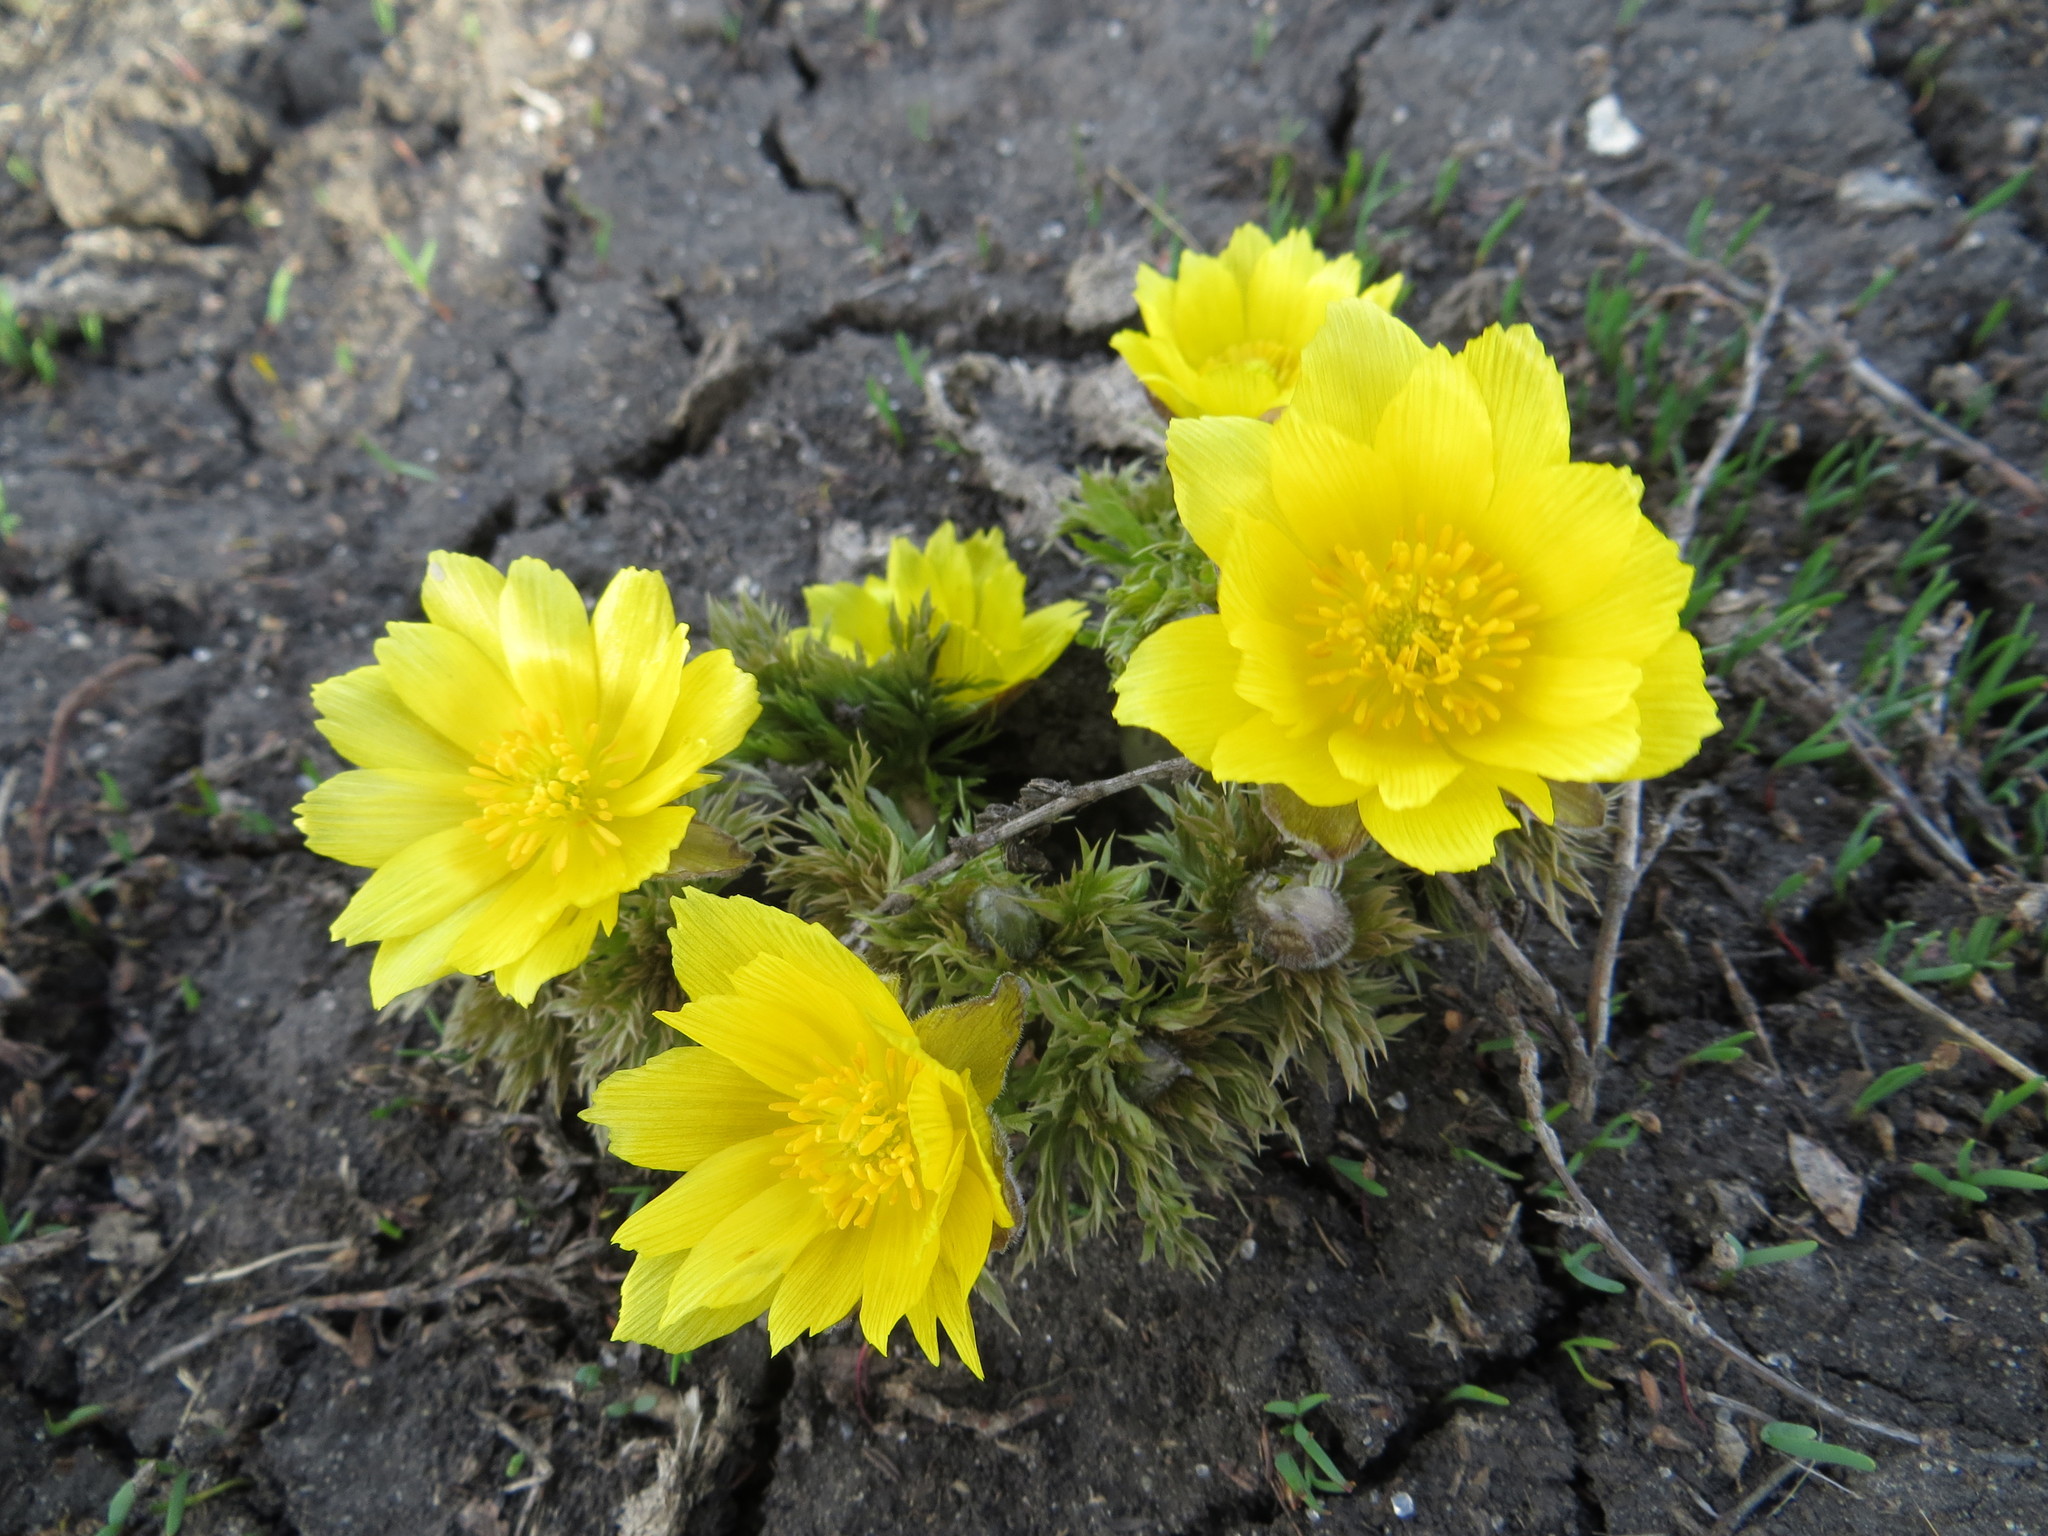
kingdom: Plantae
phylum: Tracheophyta
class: Magnoliopsida
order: Ranunculales
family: Ranunculaceae
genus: Adonis
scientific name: Adonis vernalis
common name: Yellow pheasants-eye
